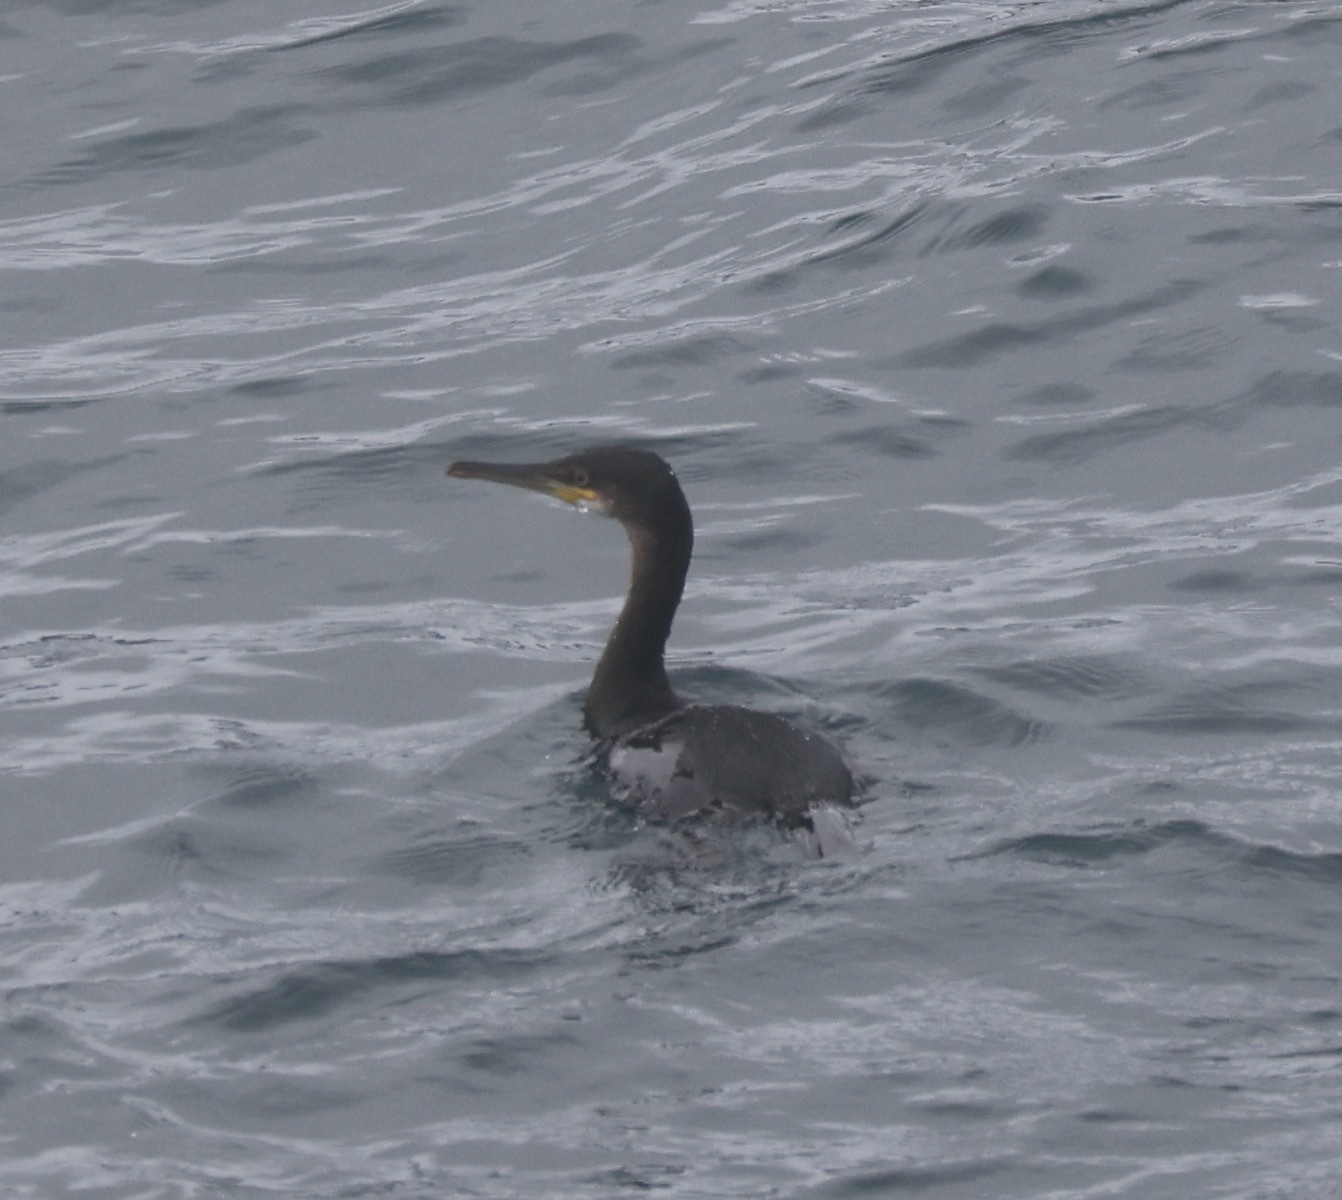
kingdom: Animalia
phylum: Chordata
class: Aves
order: Suliformes
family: Phalacrocoracidae
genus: Phalacrocorax
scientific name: Phalacrocorax aristotelis
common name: European shag
